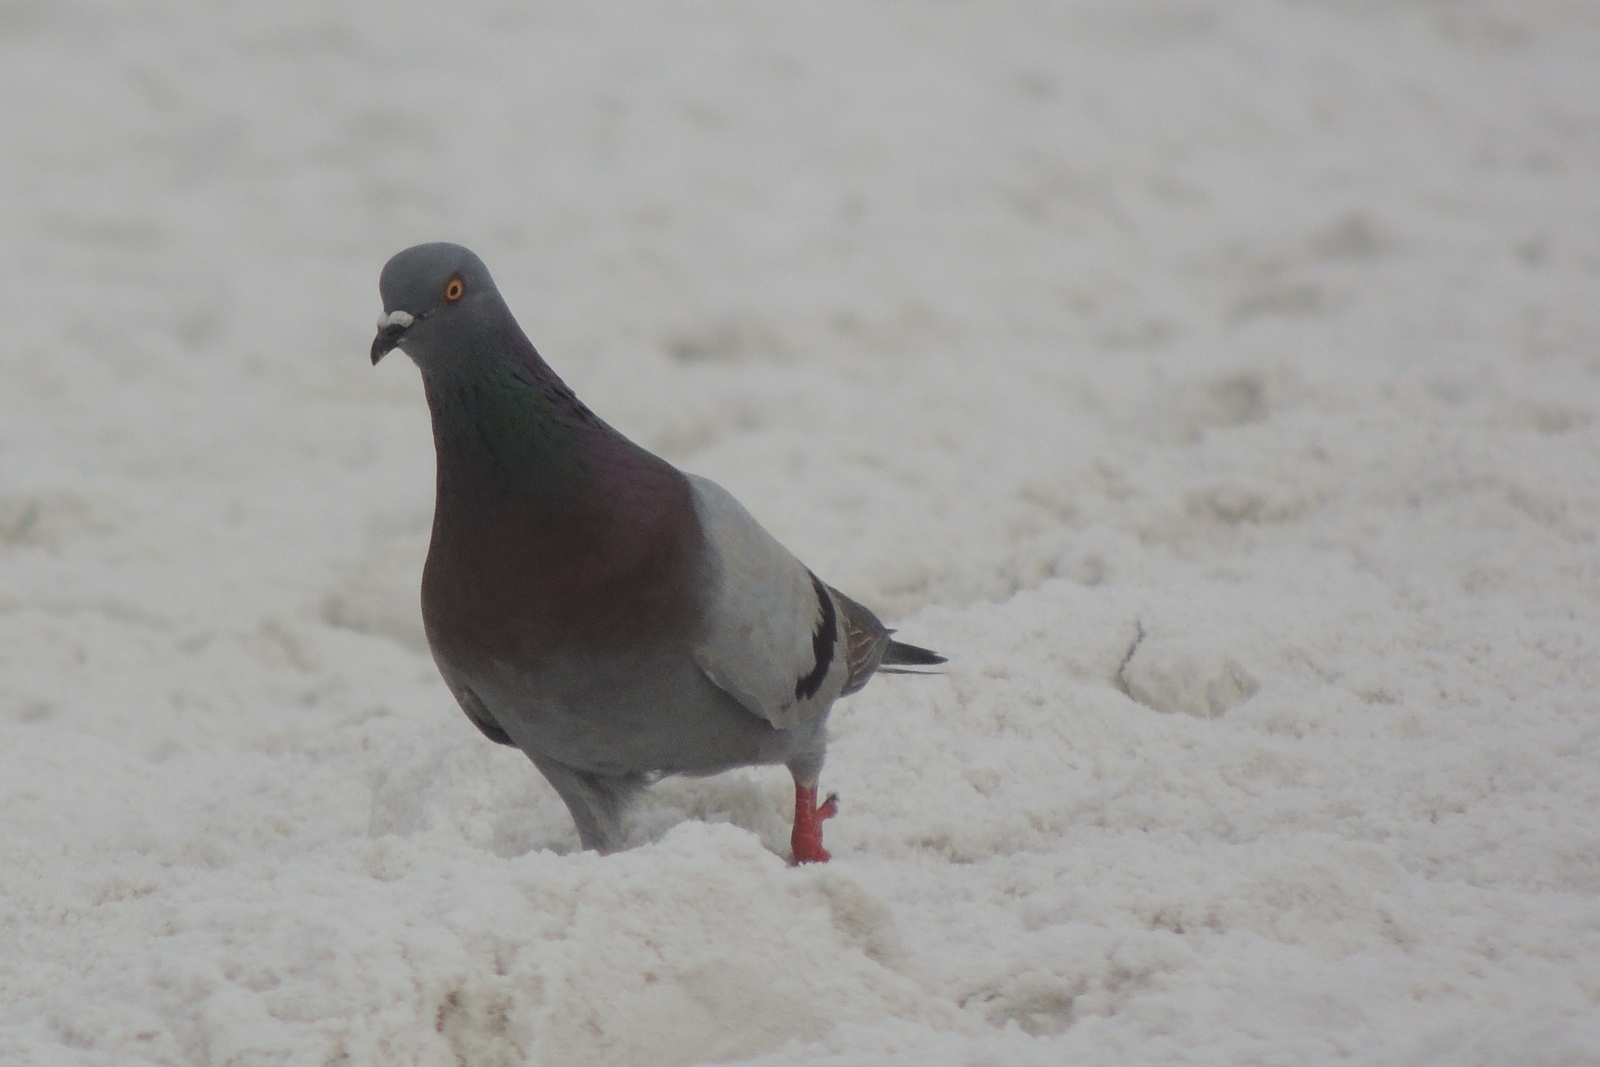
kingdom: Animalia
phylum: Chordata
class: Aves
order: Columbiformes
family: Columbidae
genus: Columba
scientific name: Columba livia
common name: Rock pigeon
